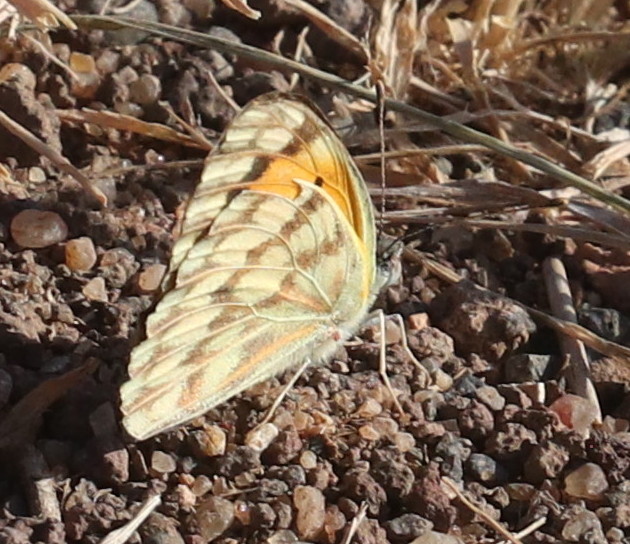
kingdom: Animalia
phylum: Arthropoda
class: Insecta
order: Lepidoptera
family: Pieridae
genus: Colotis
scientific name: Colotis aurigineus
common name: African golden arab
